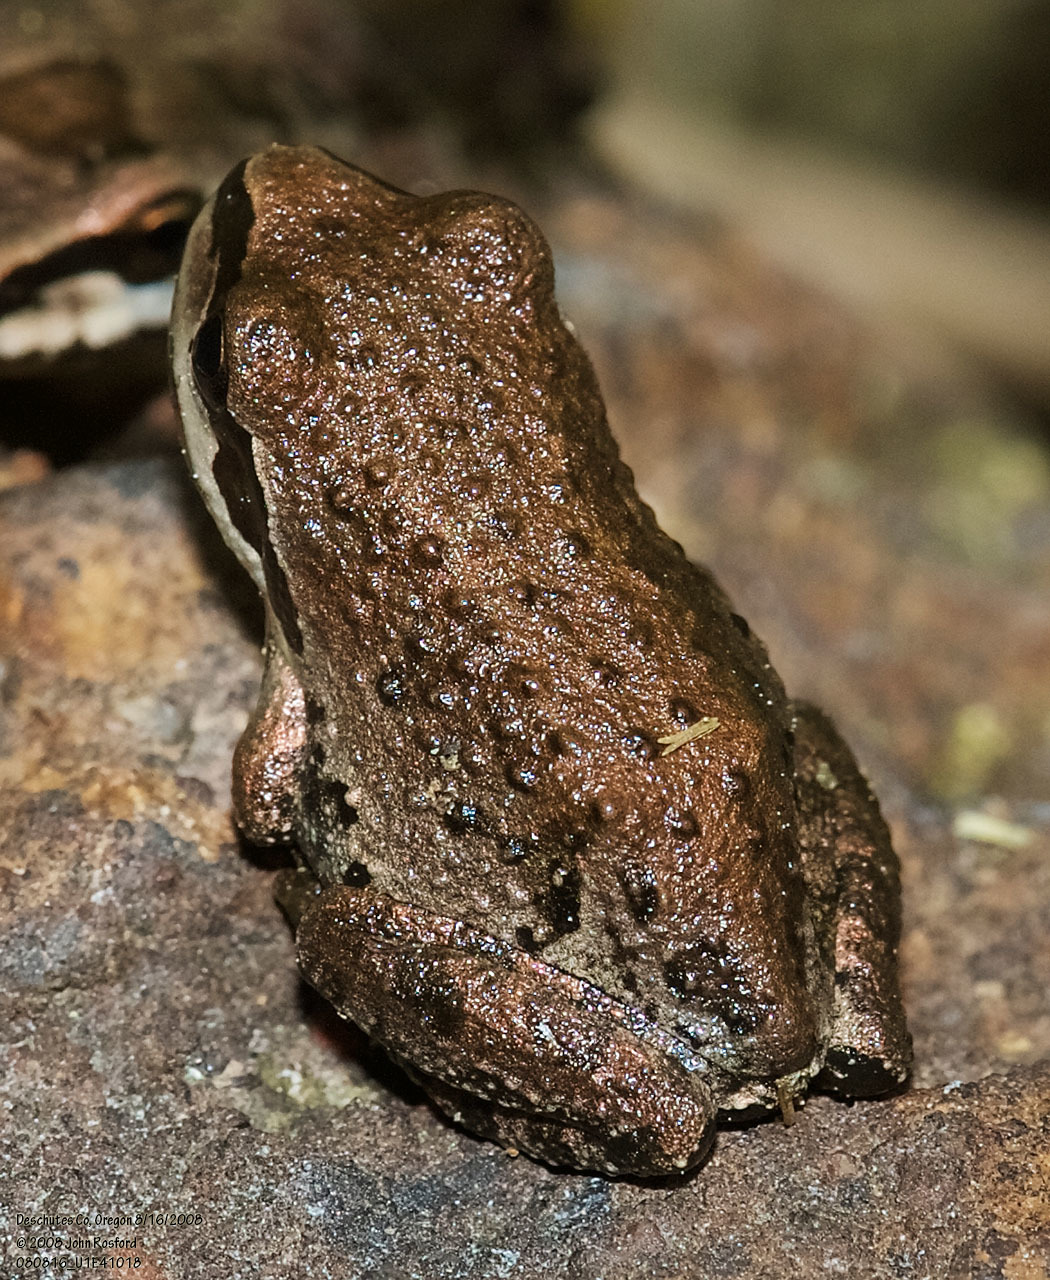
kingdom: Animalia
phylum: Chordata
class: Amphibia
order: Anura
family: Hylidae
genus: Pseudacris
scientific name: Pseudacris regilla
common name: Pacific chorus frog
